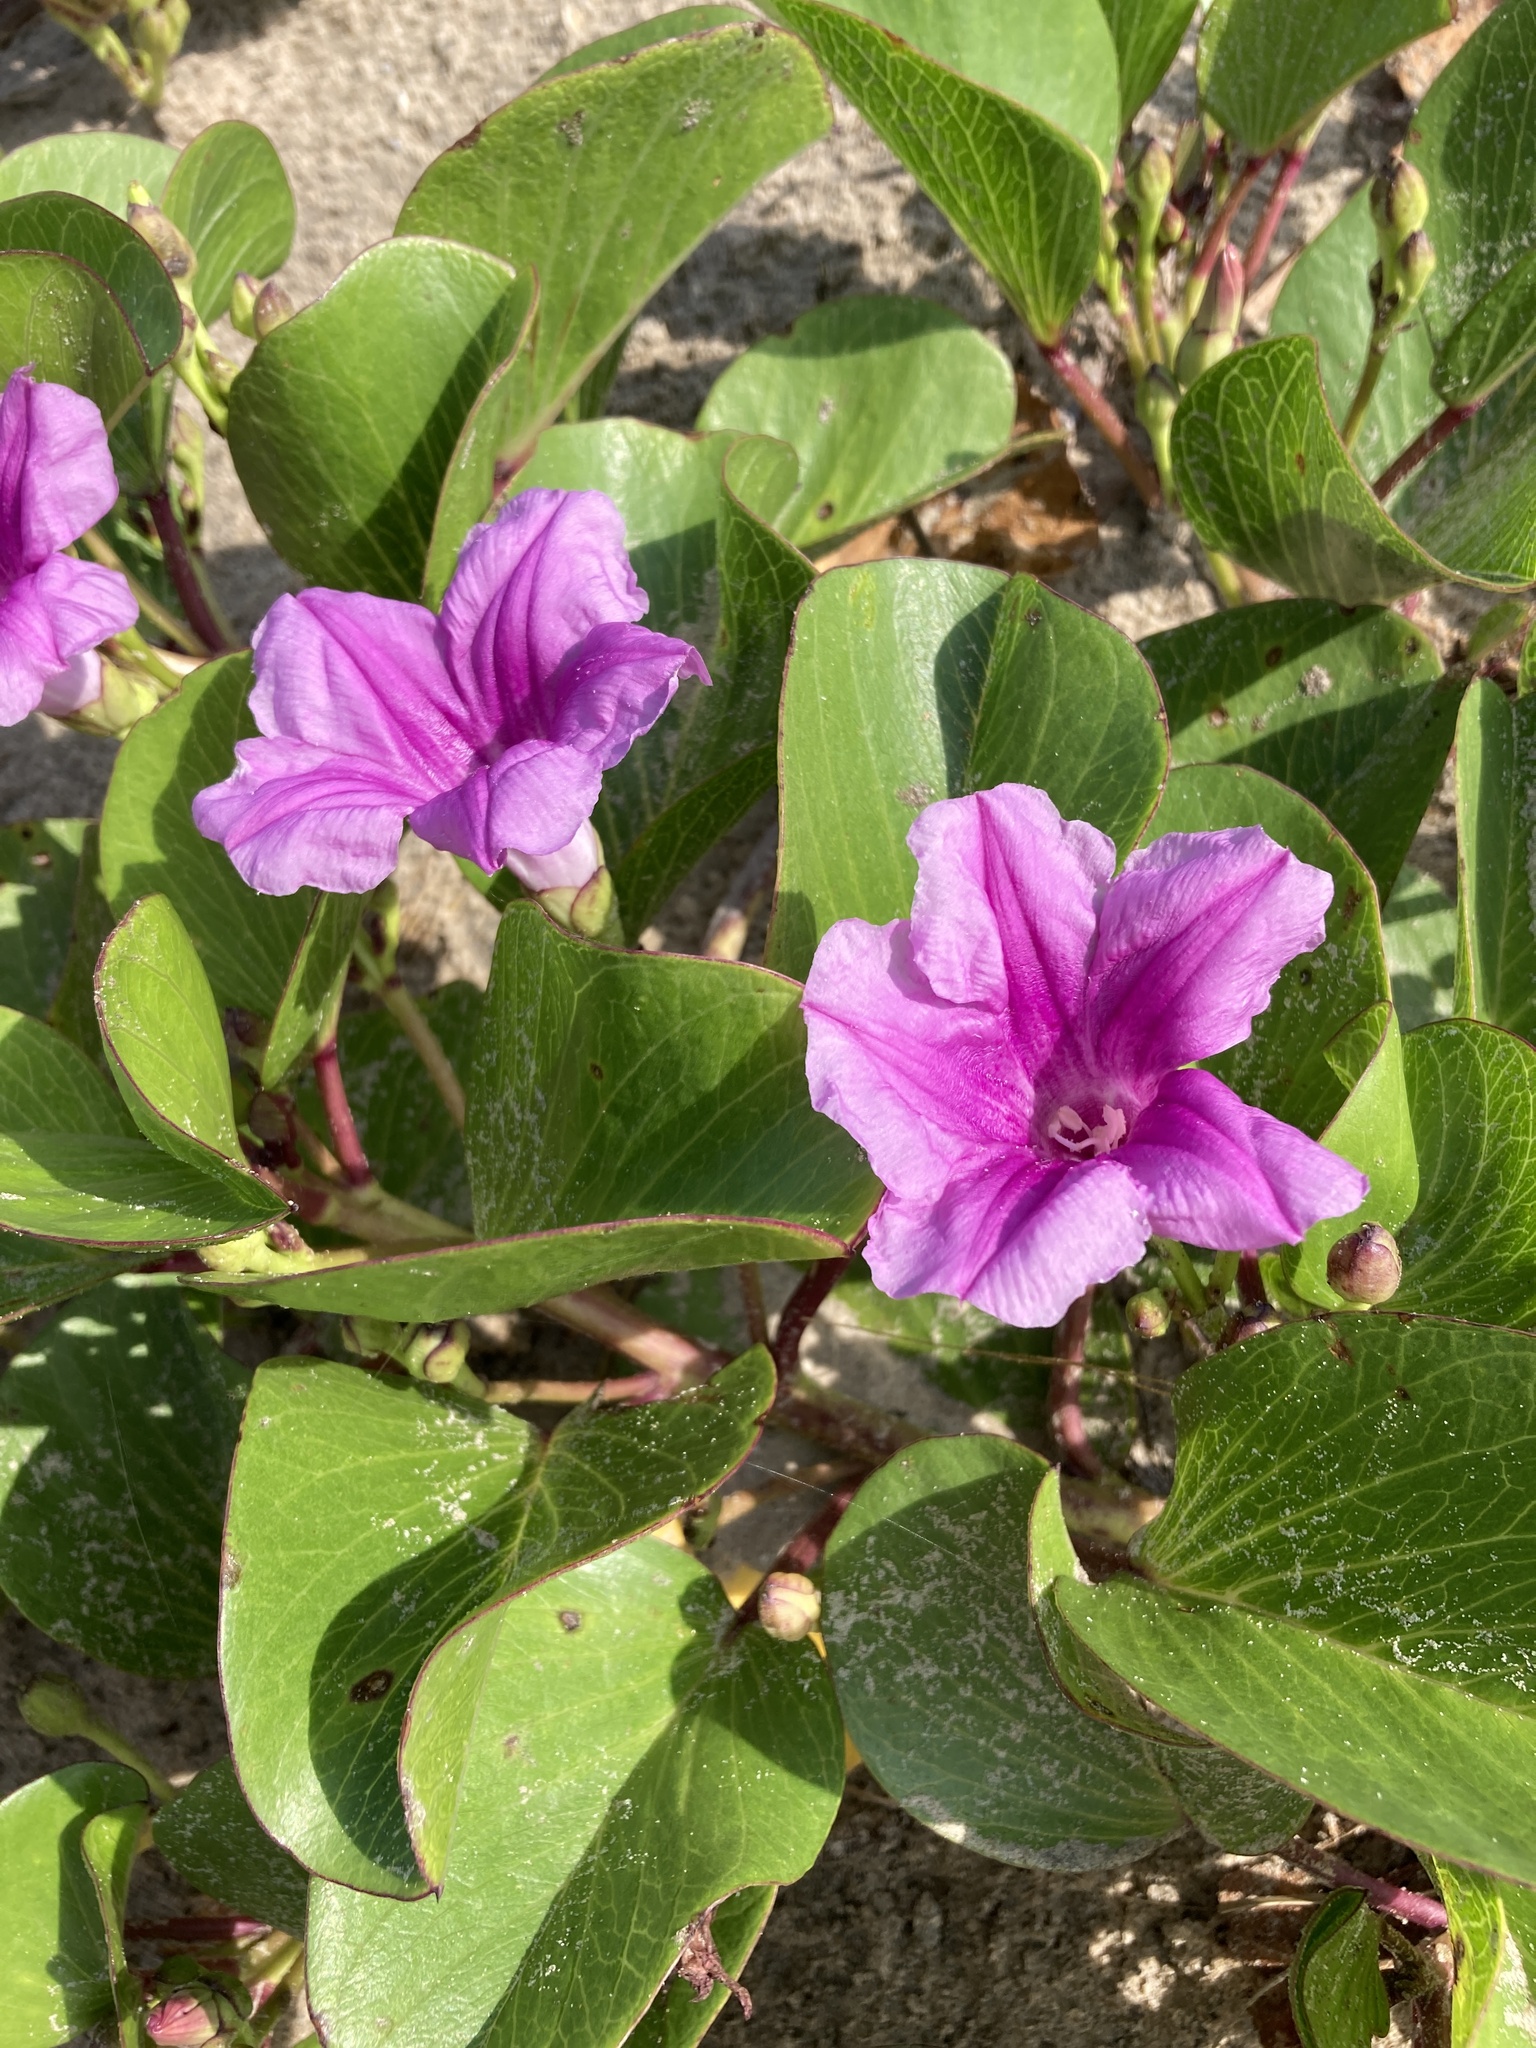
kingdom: Plantae
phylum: Tracheophyta
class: Magnoliopsida
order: Solanales
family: Convolvulaceae
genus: Ipomoea
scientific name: Ipomoea pes-caprae
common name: Beach morning glory
